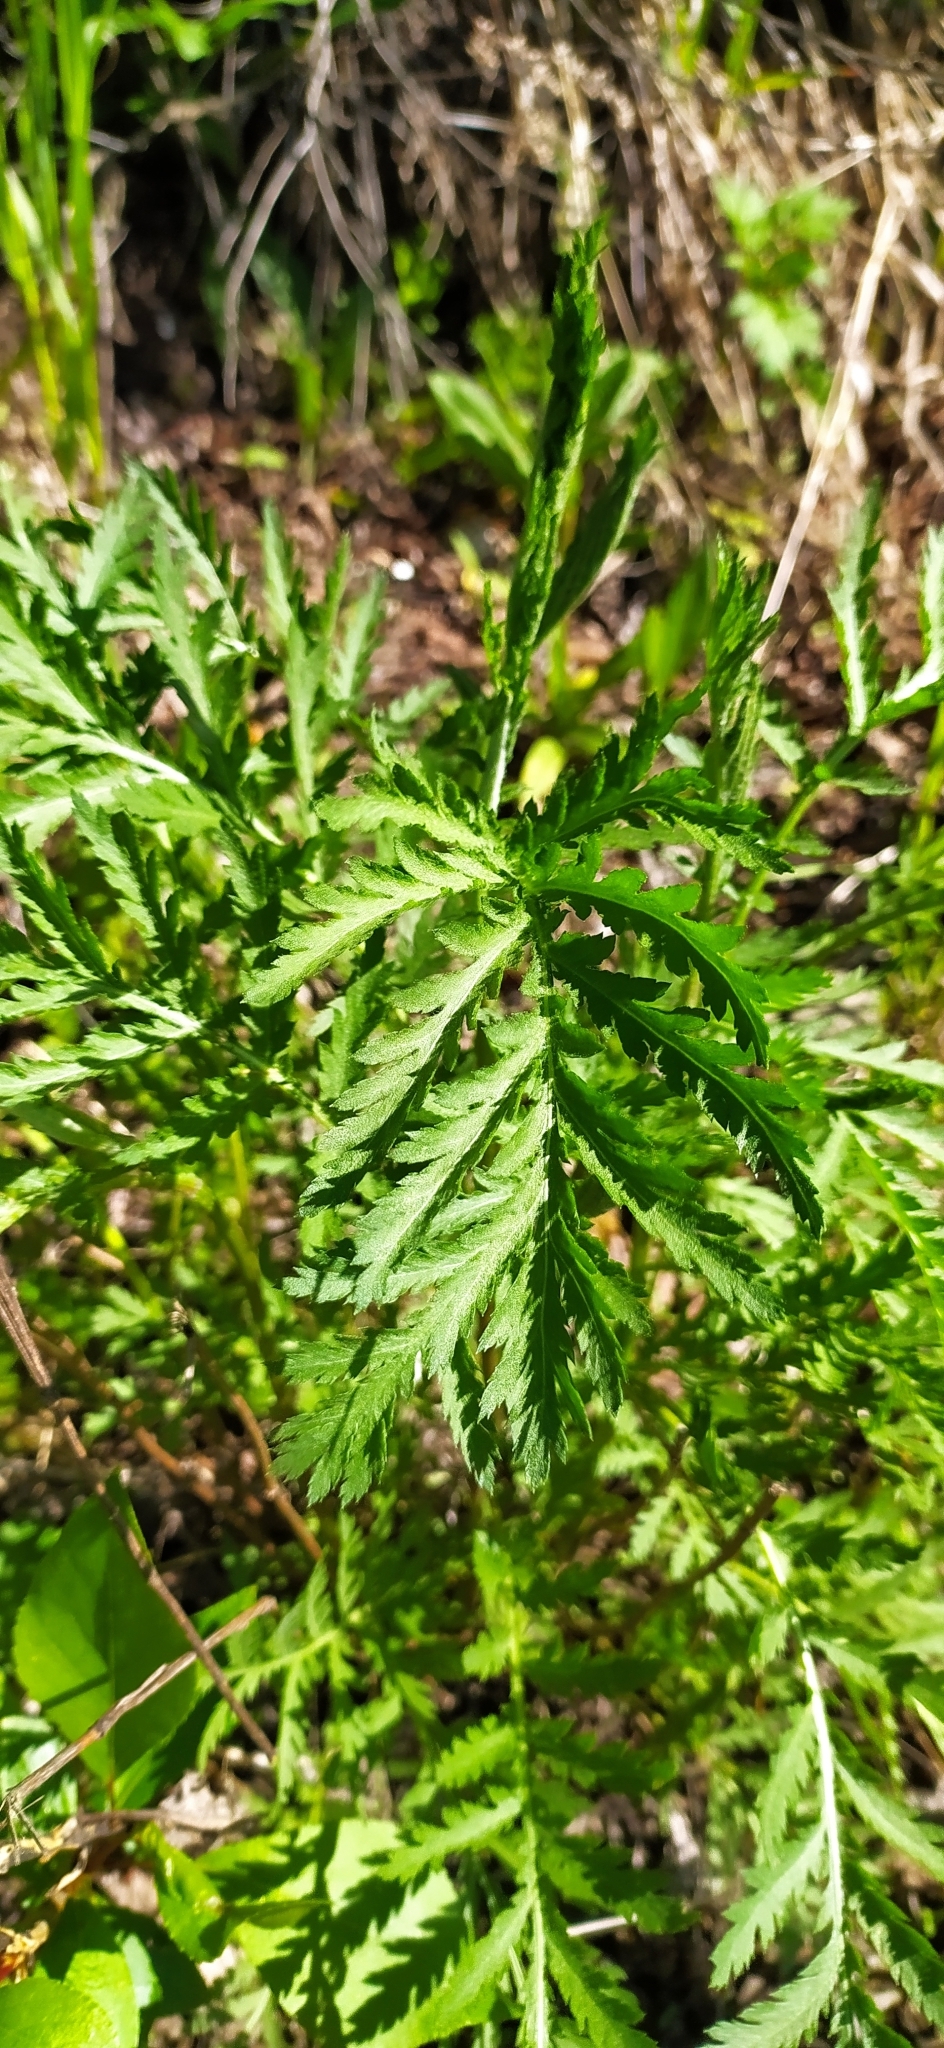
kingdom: Plantae
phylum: Tracheophyta
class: Magnoliopsida
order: Asterales
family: Asteraceae
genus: Tanacetum
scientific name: Tanacetum vulgare
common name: Common tansy
